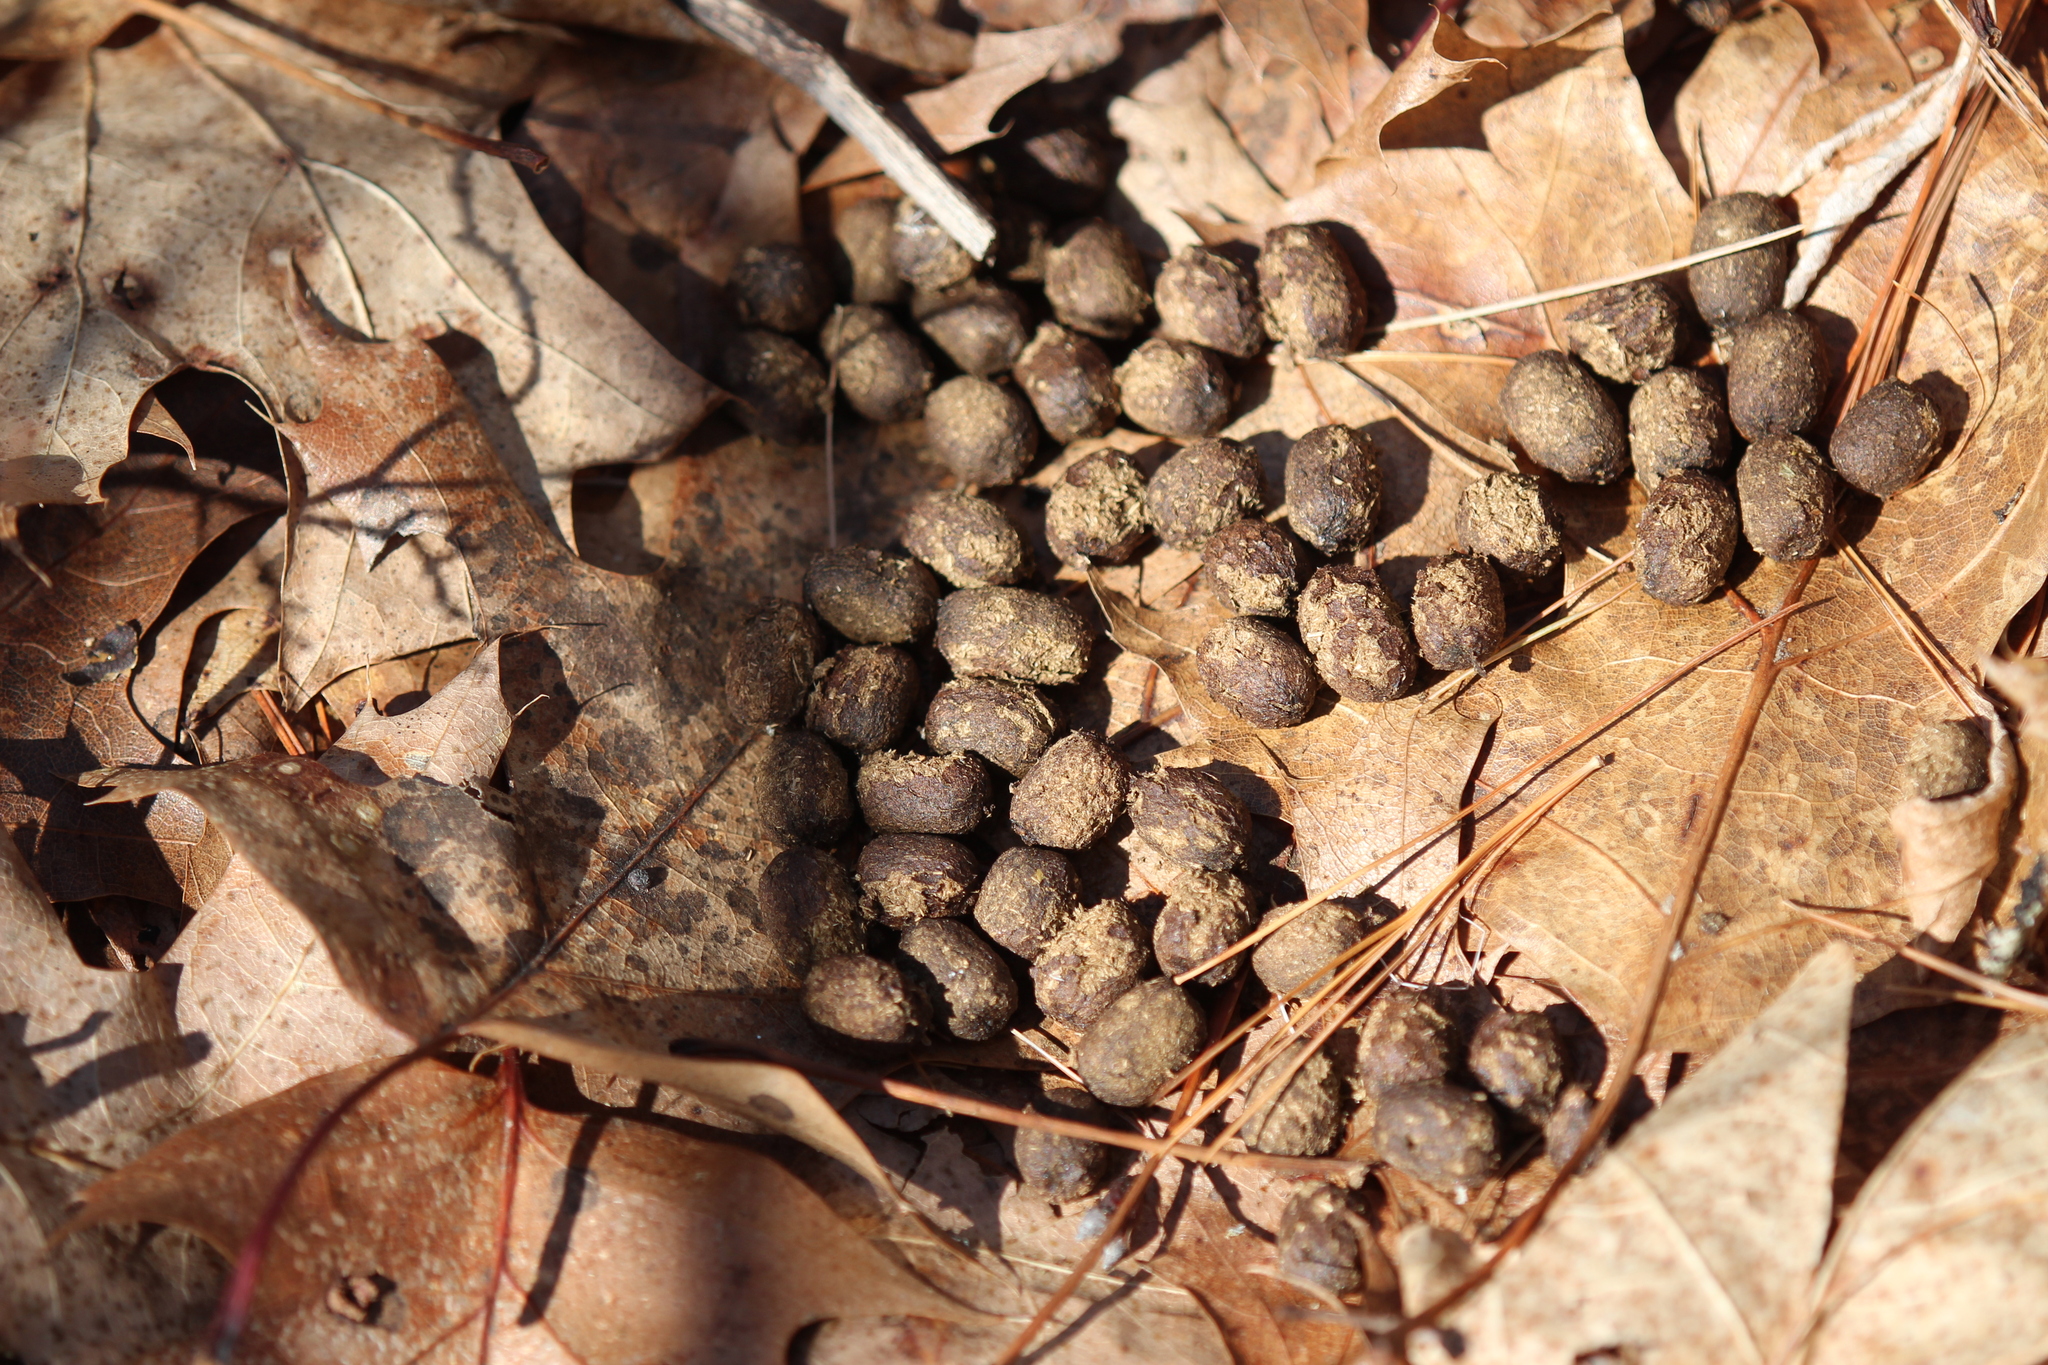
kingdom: Animalia
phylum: Chordata
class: Mammalia
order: Artiodactyla
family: Cervidae
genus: Odocoileus
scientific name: Odocoileus virginianus
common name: White-tailed deer
